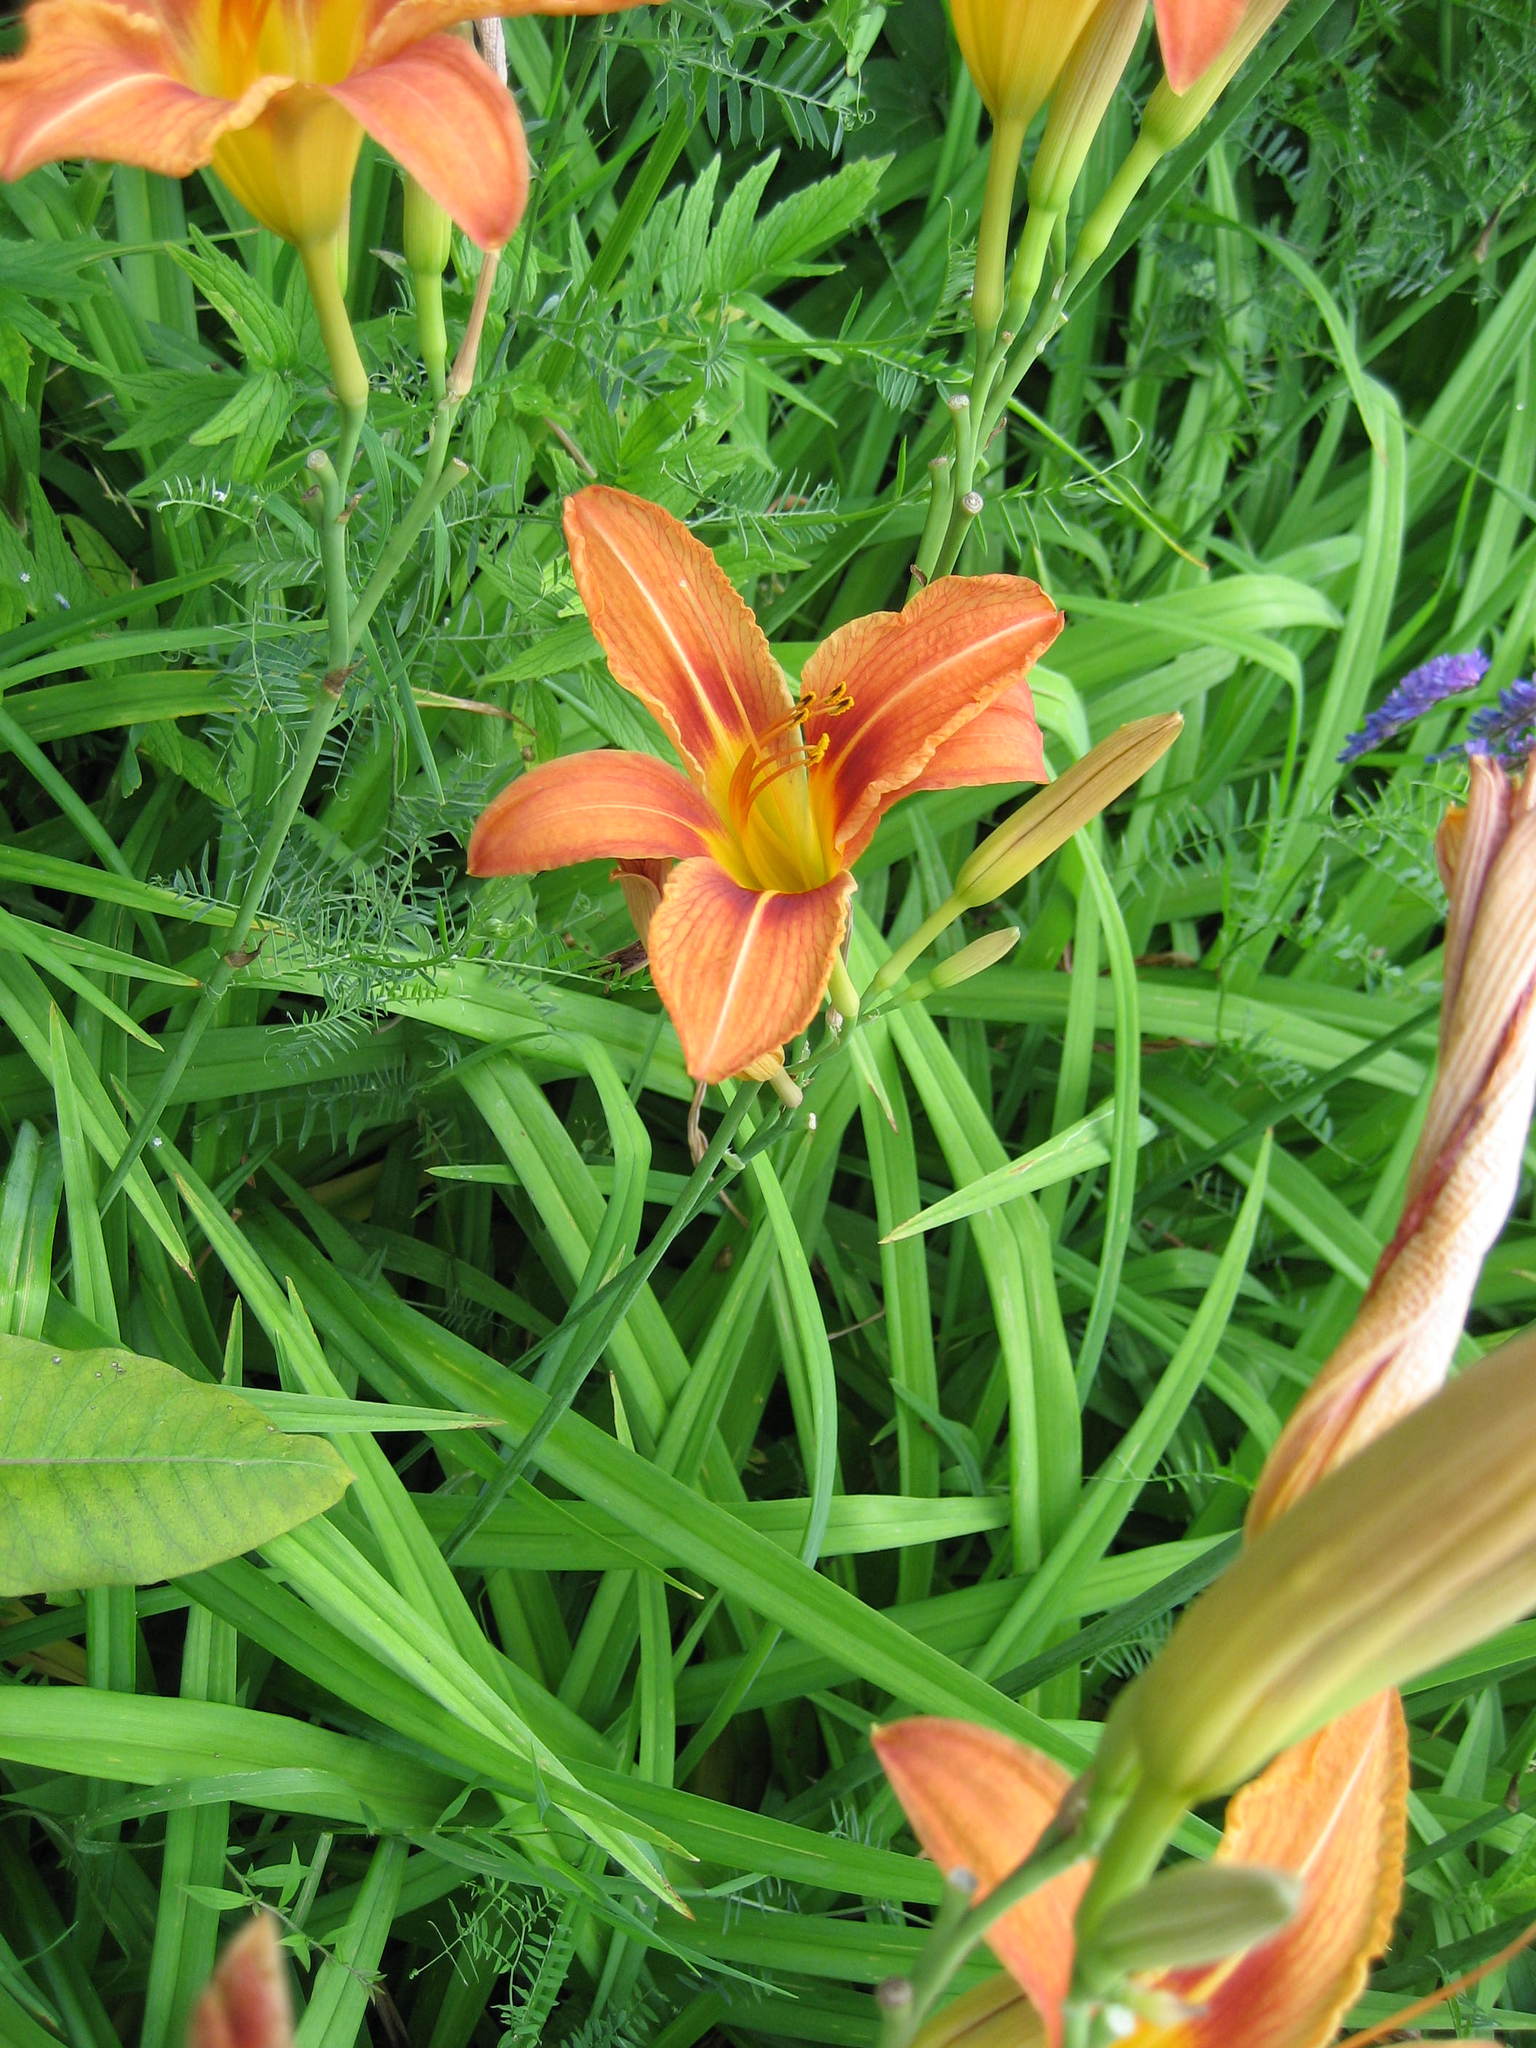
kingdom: Plantae
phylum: Tracheophyta
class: Liliopsida
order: Asparagales
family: Asphodelaceae
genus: Hemerocallis
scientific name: Hemerocallis fulva
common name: Orange day-lily
